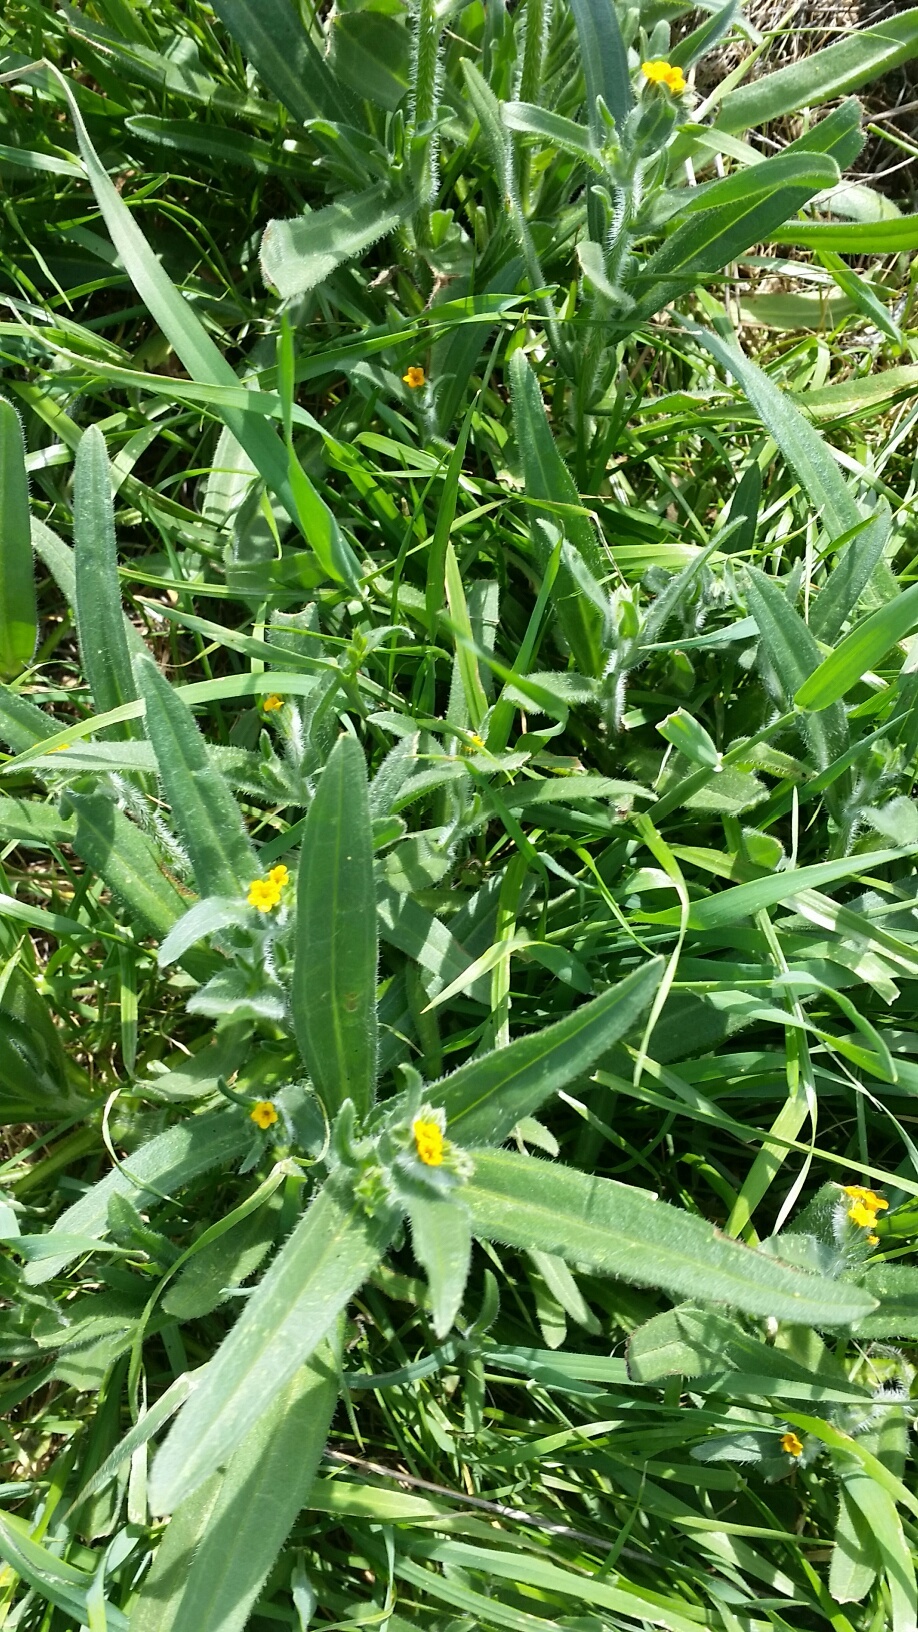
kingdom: Plantae
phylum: Tracheophyta
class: Magnoliopsida
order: Boraginales
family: Boraginaceae
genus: Amsinckia
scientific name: Amsinckia menziesii
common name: Menzies' fiddleneck
